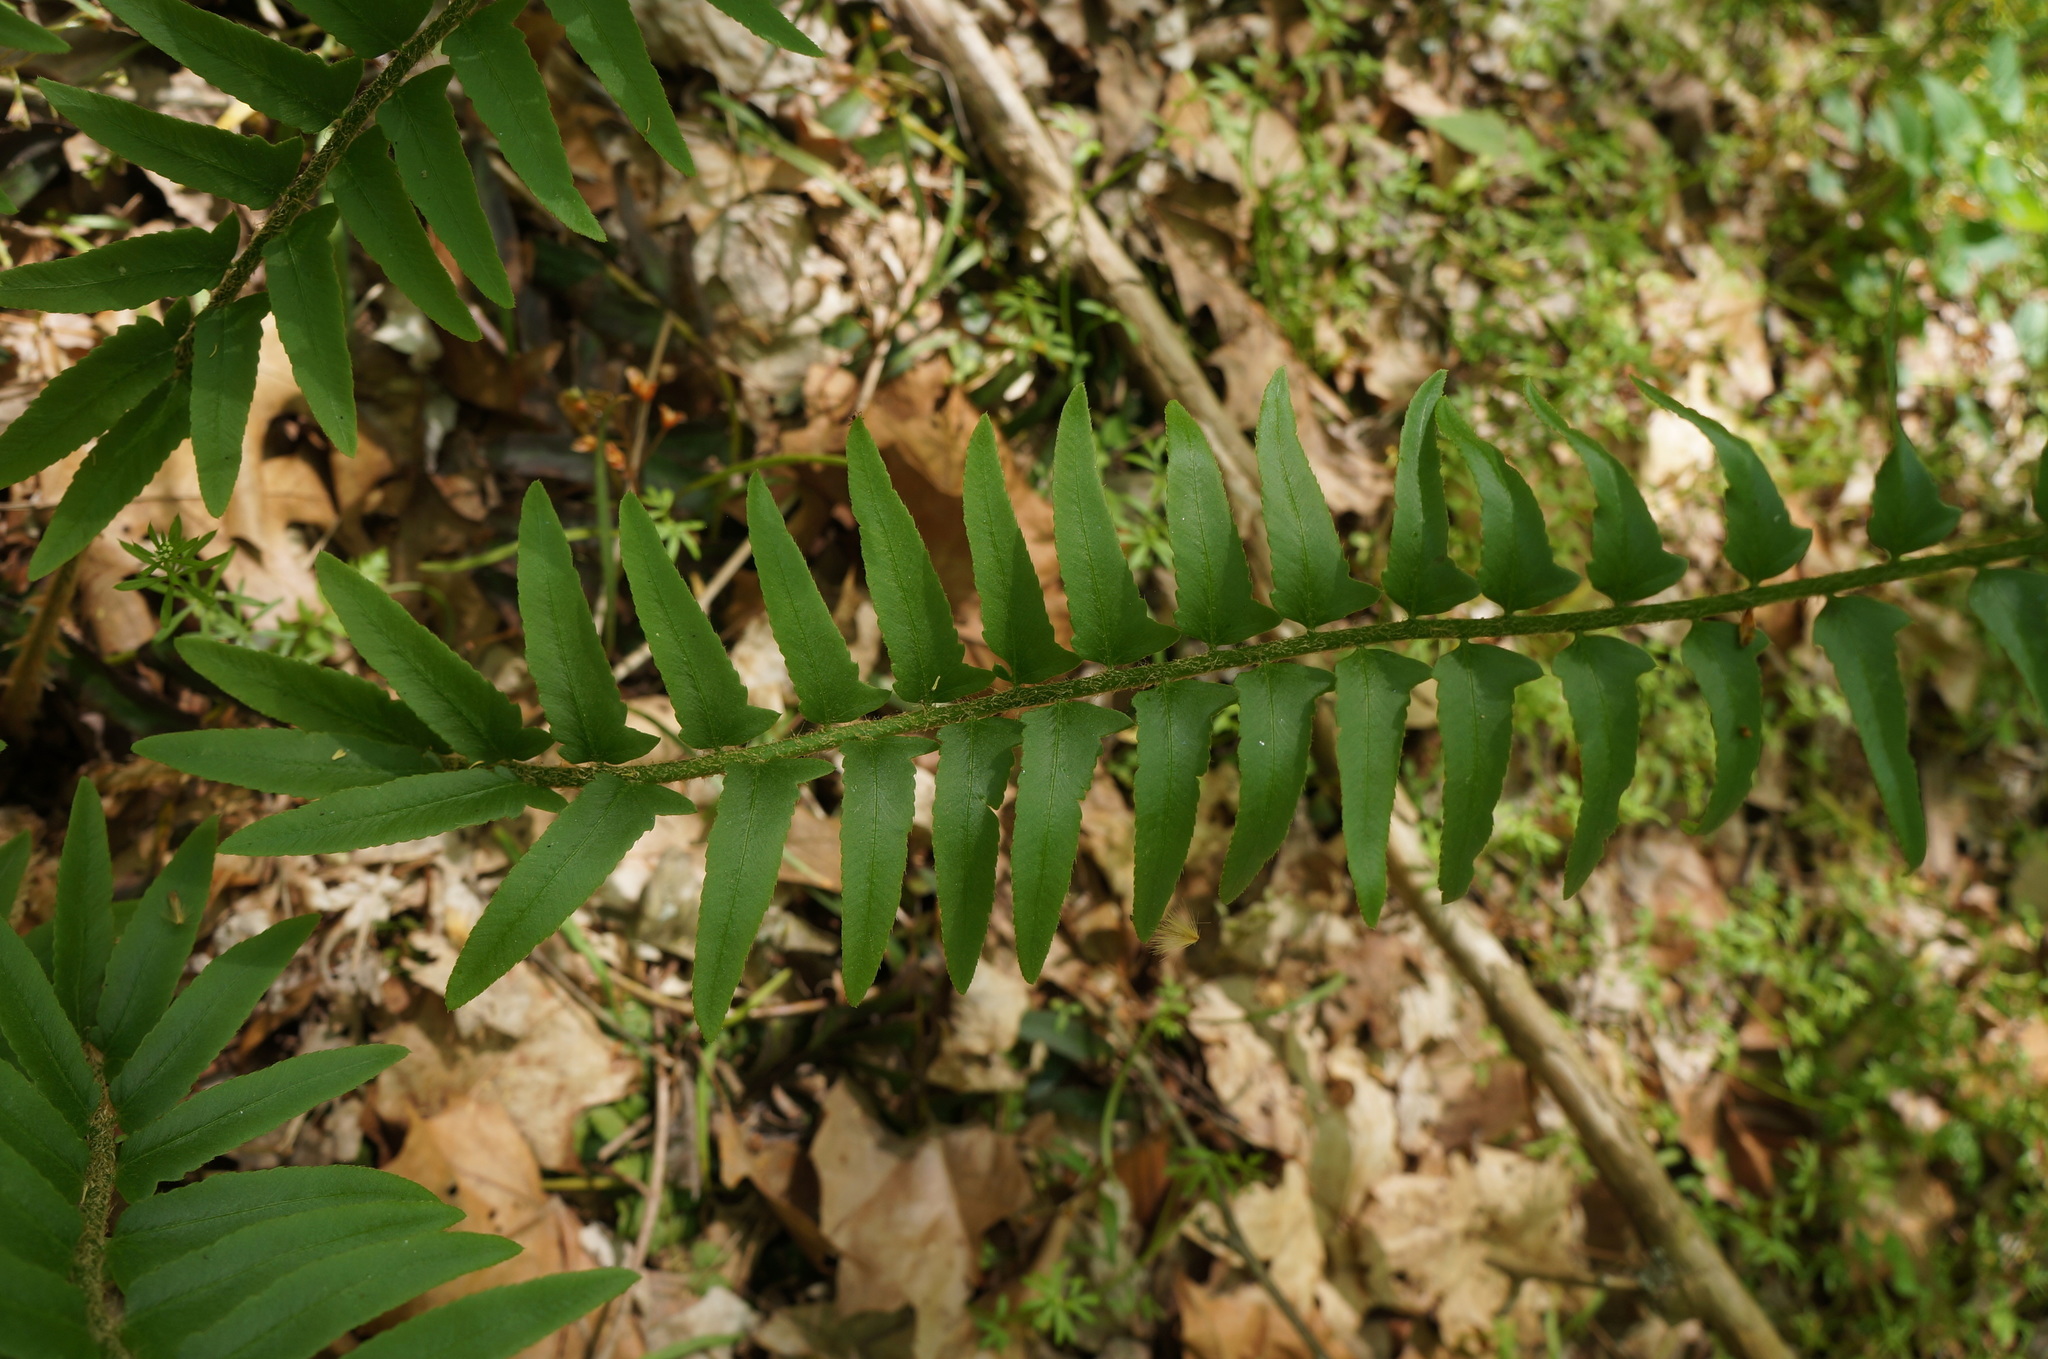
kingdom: Plantae
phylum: Tracheophyta
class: Polypodiopsida
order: Polypodiales
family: Dryopteridaceae
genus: Polystichum
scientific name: Polystichum acrostichoides
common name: Christmas fern
